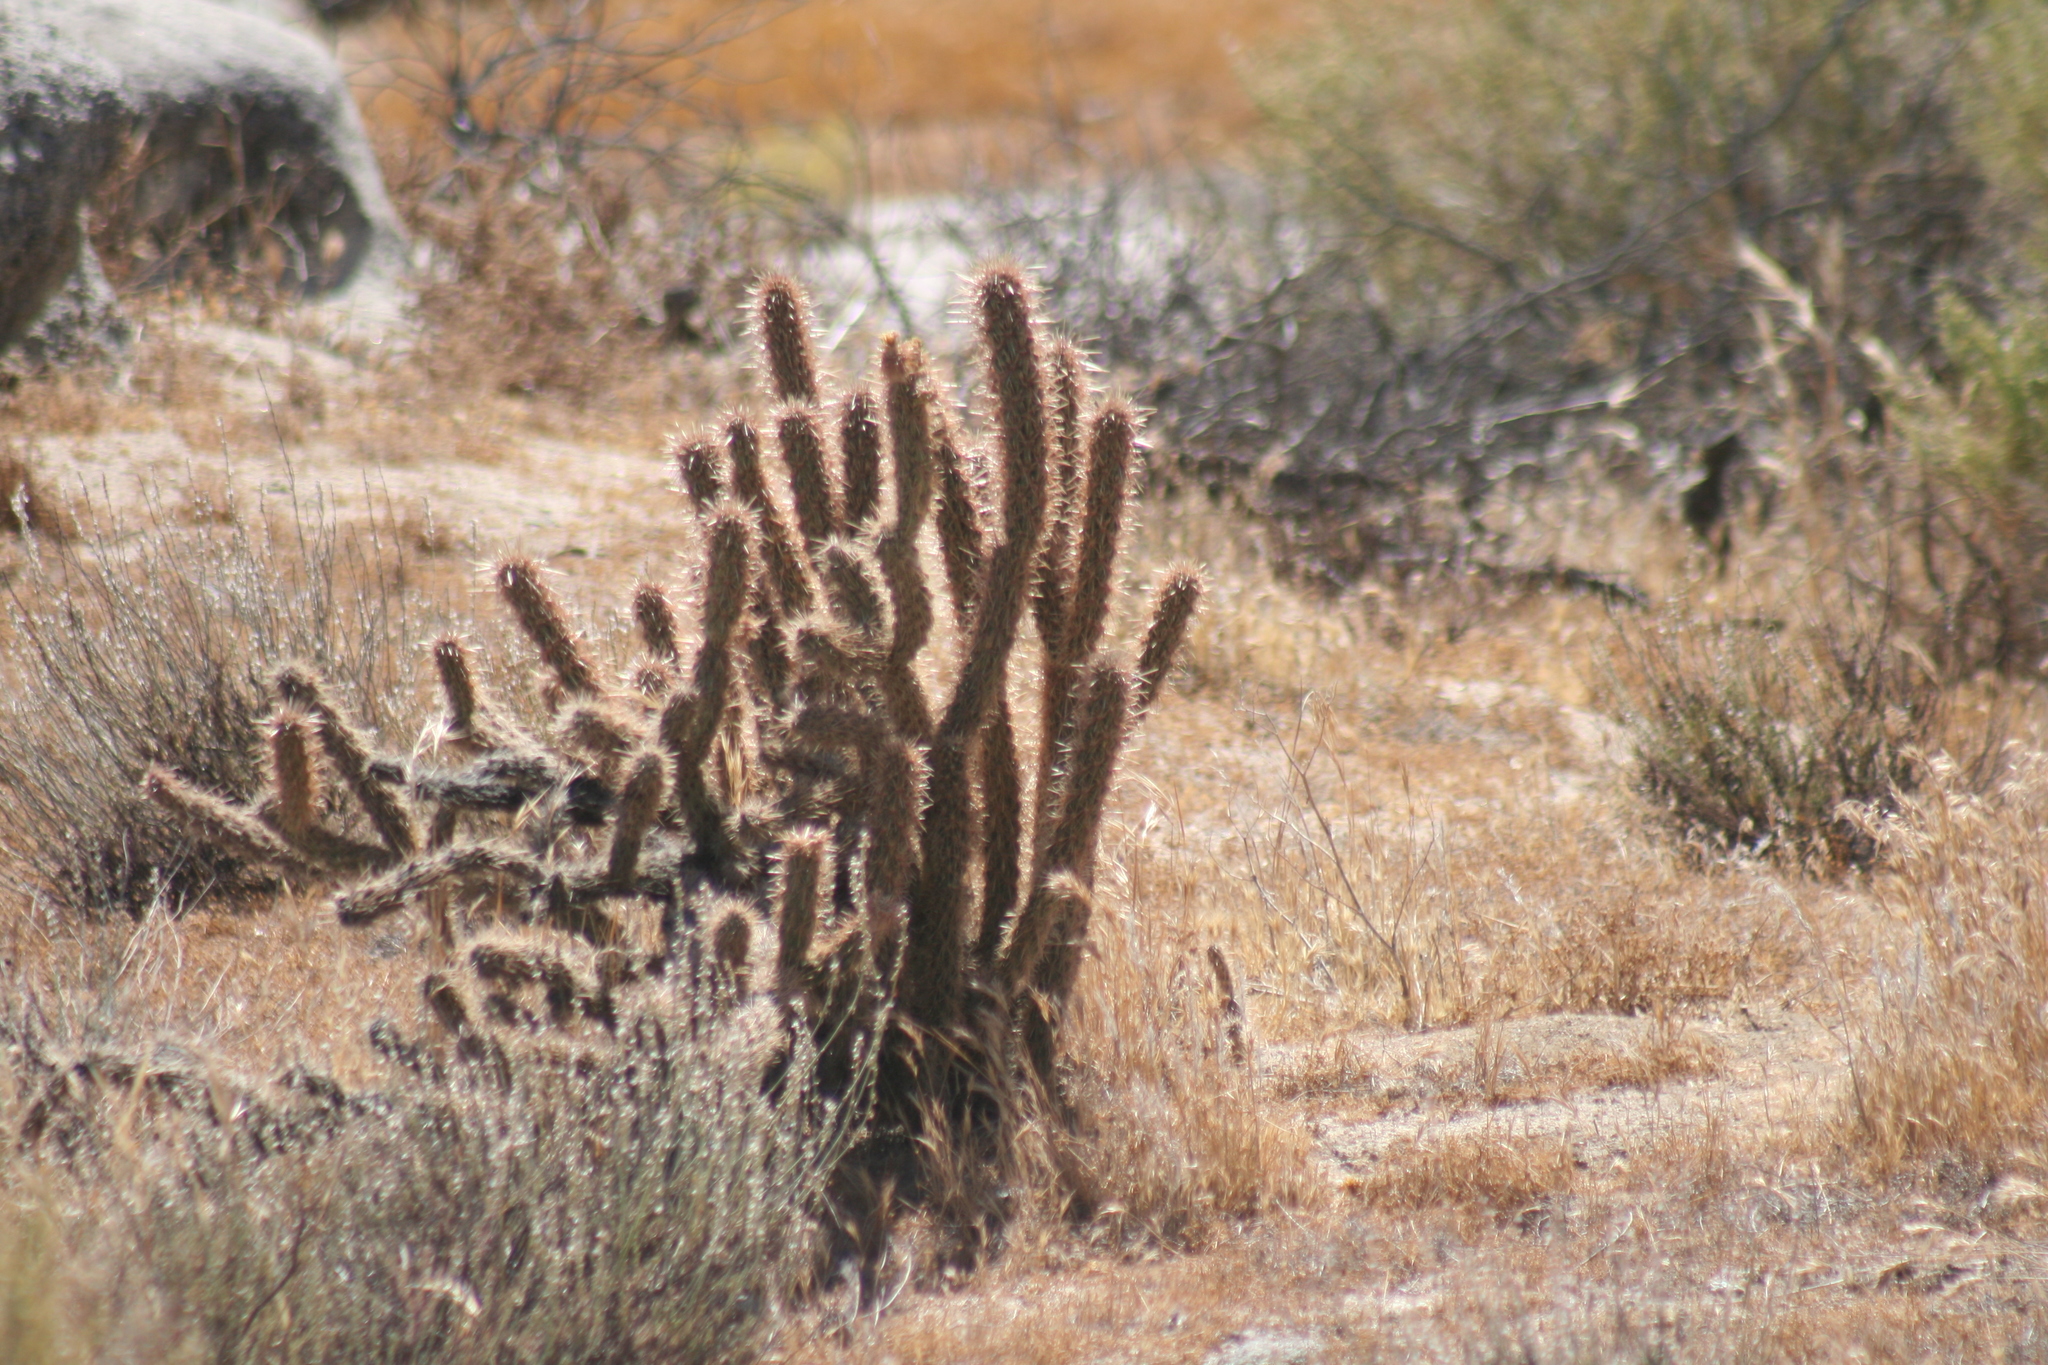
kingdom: Plantae
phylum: Tracheophyta
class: Magnoliopsida
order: Caryophyllales
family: Cactaceae
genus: Cylindropuntia
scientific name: Cylindropuntia ganderi
